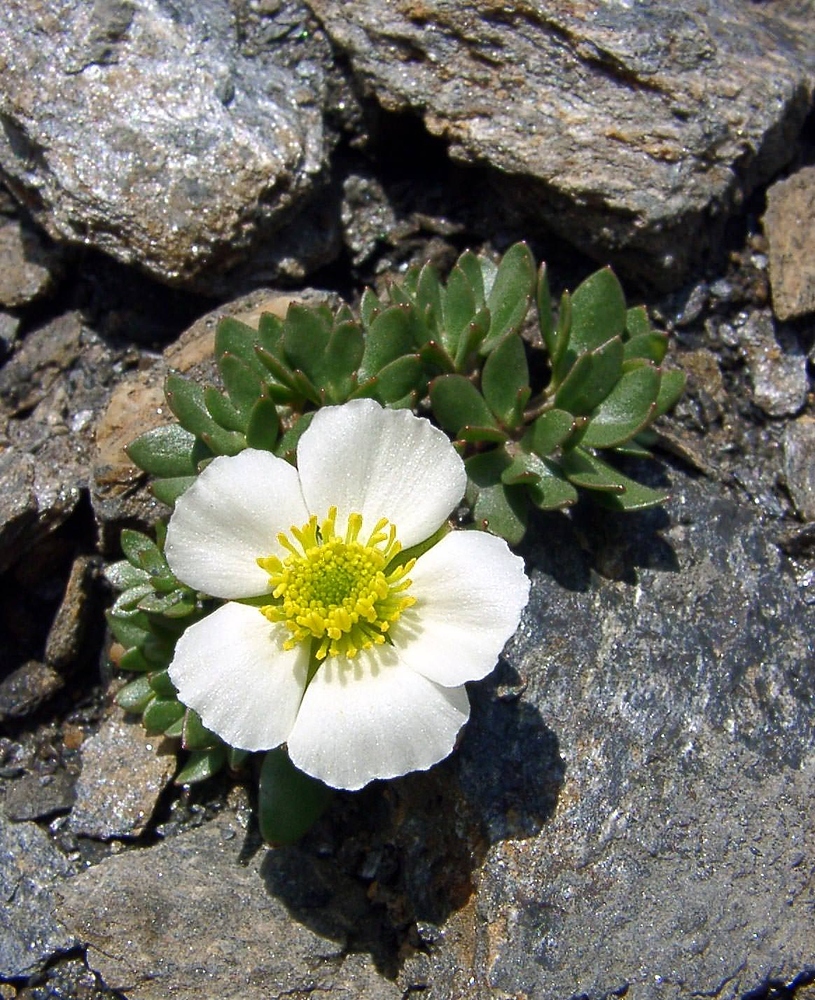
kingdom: Plantae
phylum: Tracheophyta
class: Magnoliopsida
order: Ranunculales
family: Ranunculaceae
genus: Ranunculus
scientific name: Ranunculus glacialis
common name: Glacier buttercup
